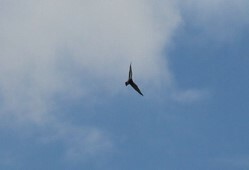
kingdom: Animalia
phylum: Chordata
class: Aves
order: Columbiformes
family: Columbidae
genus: Columba
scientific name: Columba livia
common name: Rock pigeon
